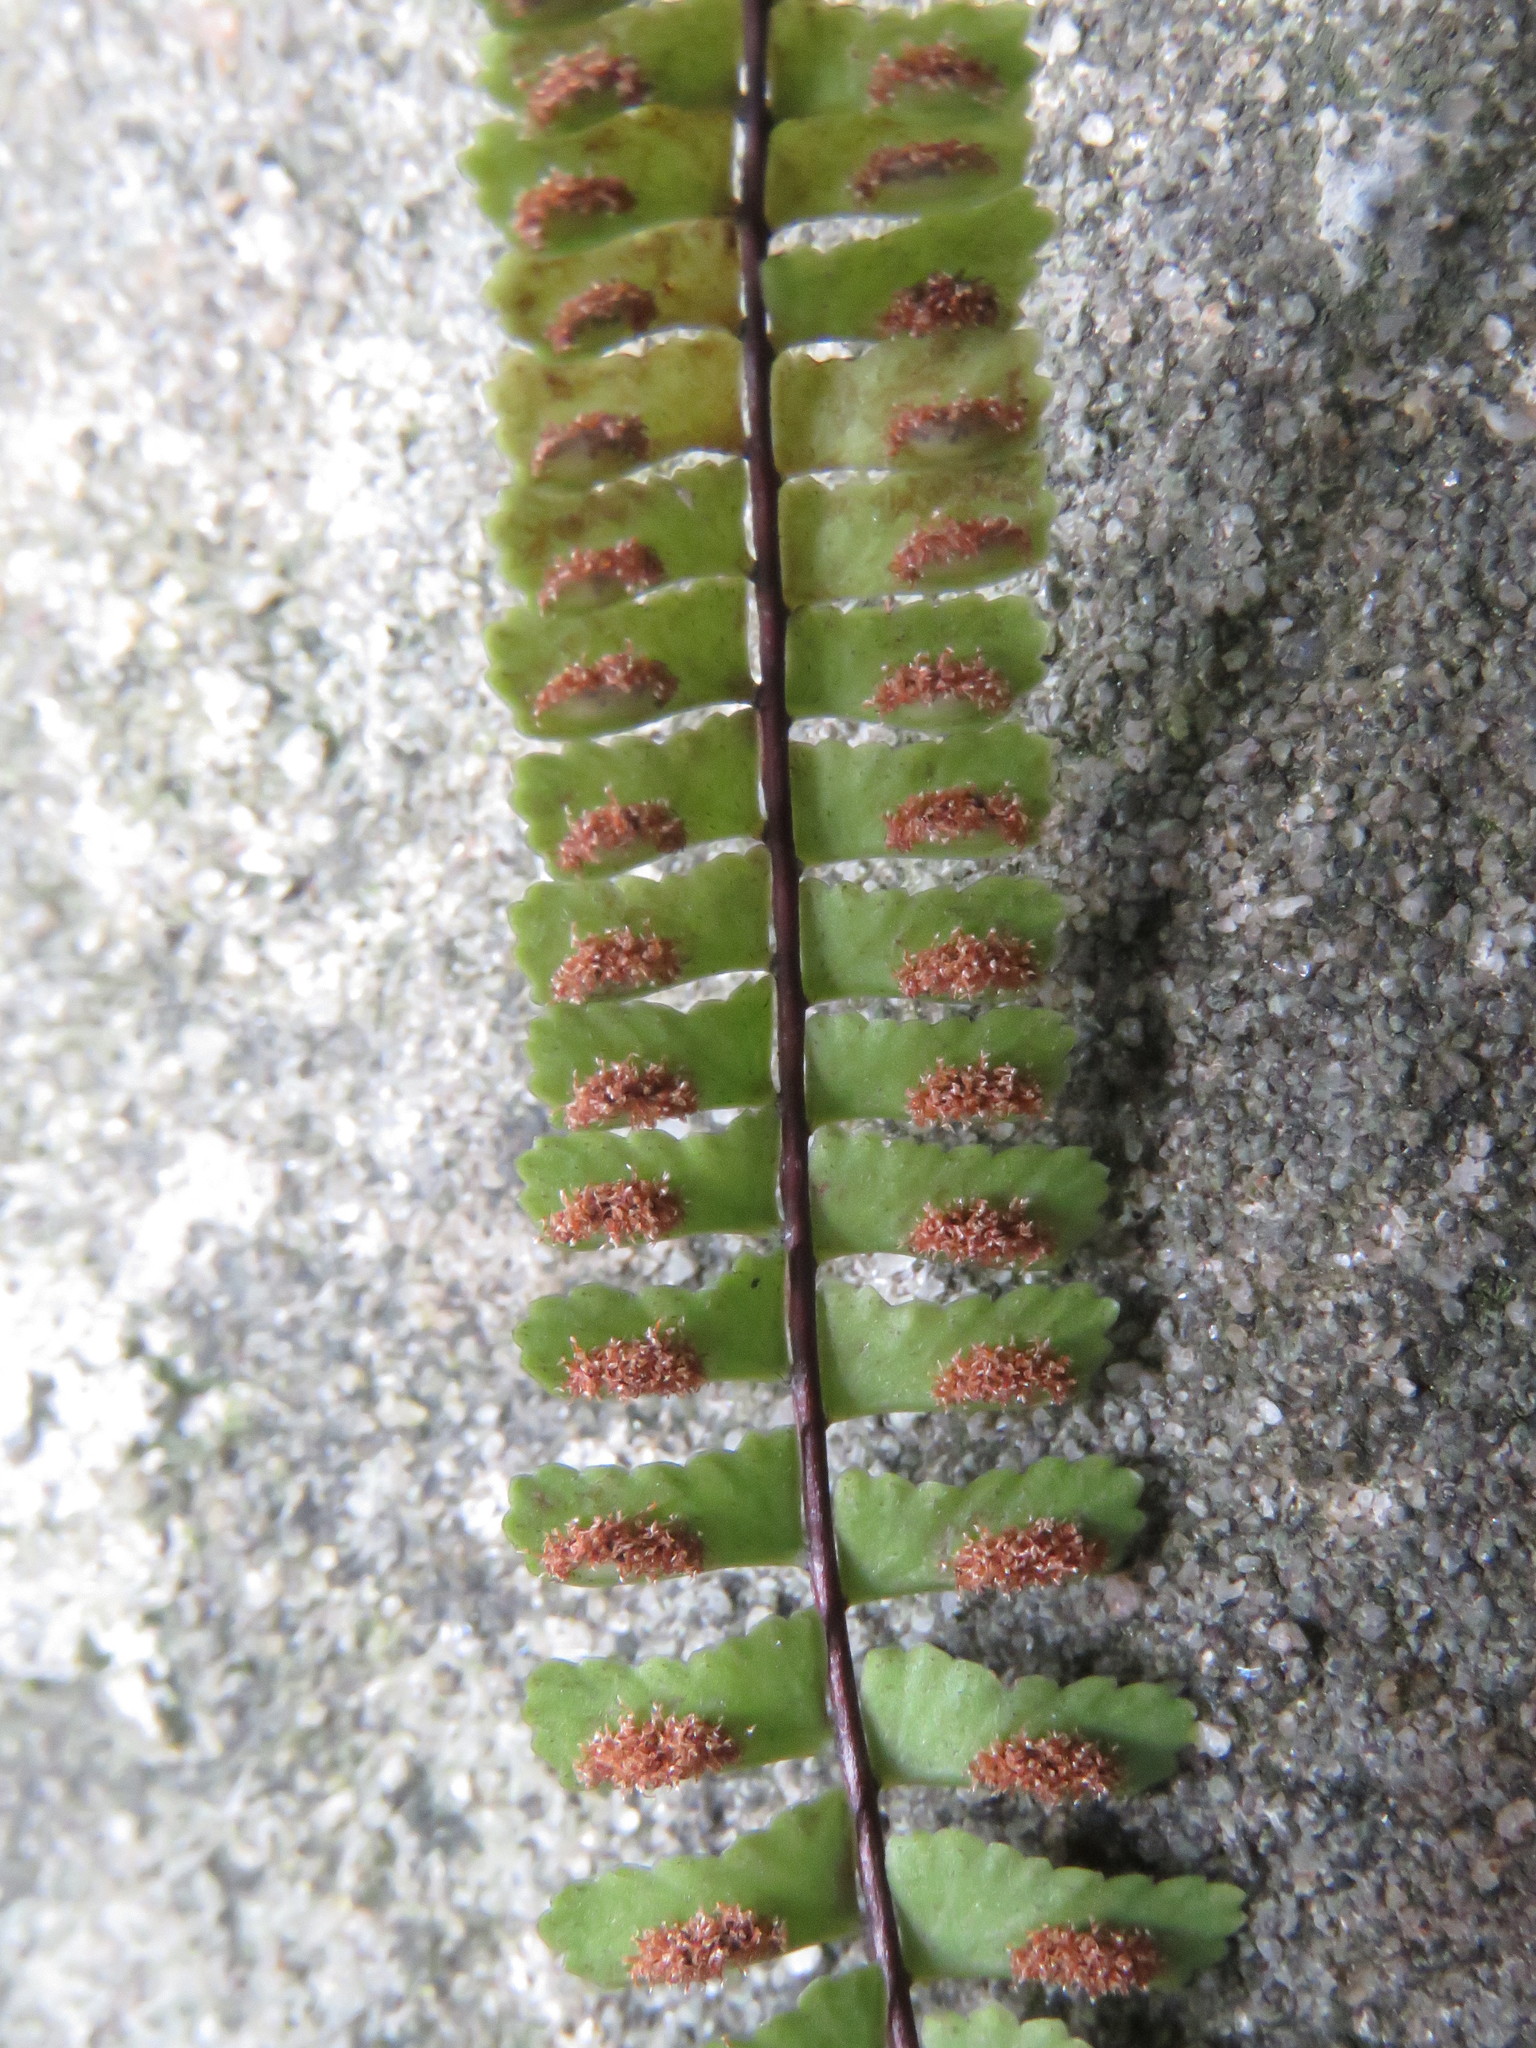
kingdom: Plantae
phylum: Tracheophyta
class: Polypodiopsida
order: Polypodiales
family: Aspleniaceae
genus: Asplenium
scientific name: Asplenium monanthes
